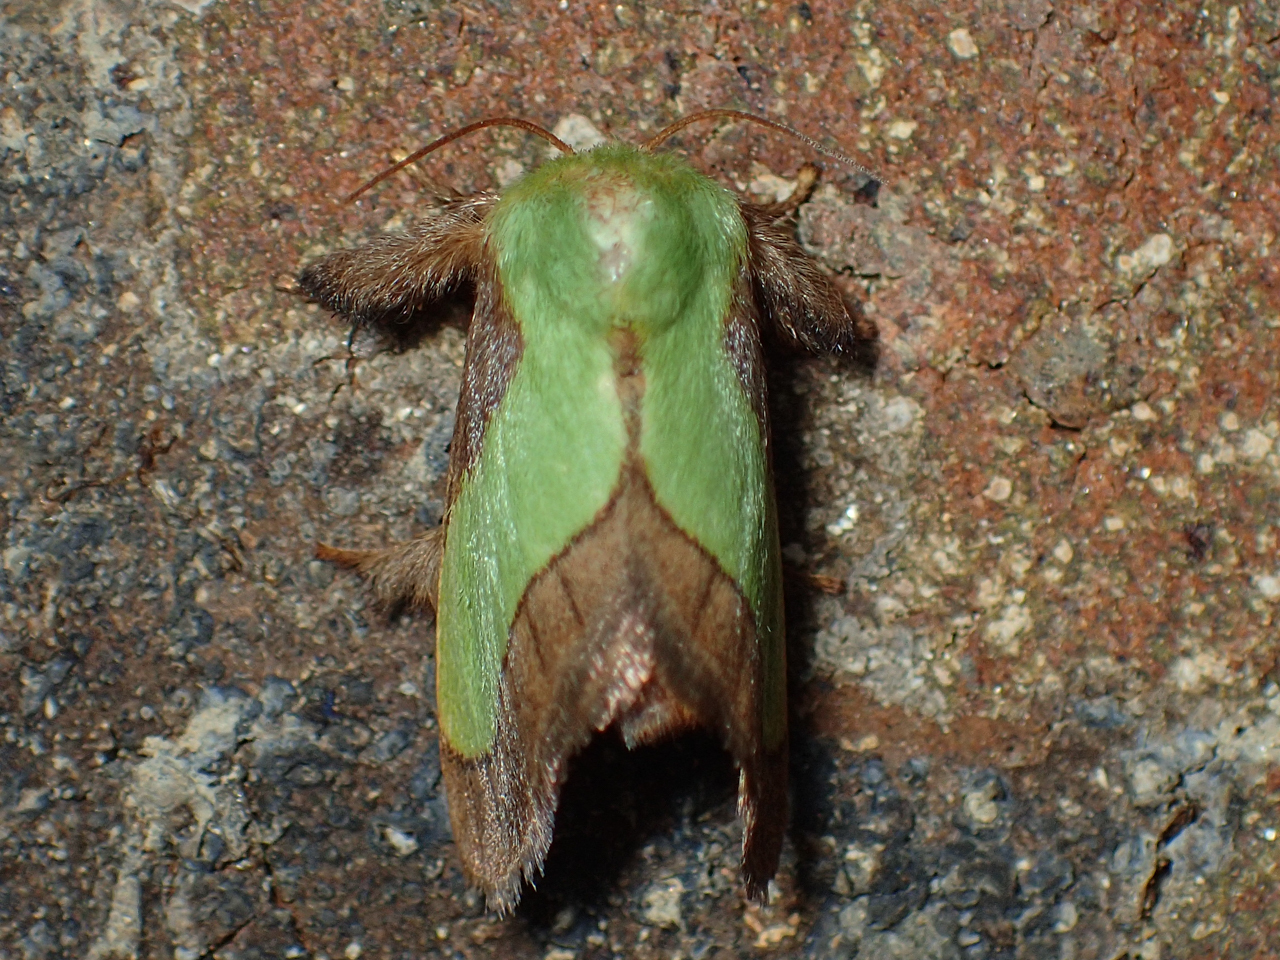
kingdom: Animalia
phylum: Arthropoda
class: Insecta
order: Lepidoptera
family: Limacodidae
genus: Parasa
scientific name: Parasa chloris
